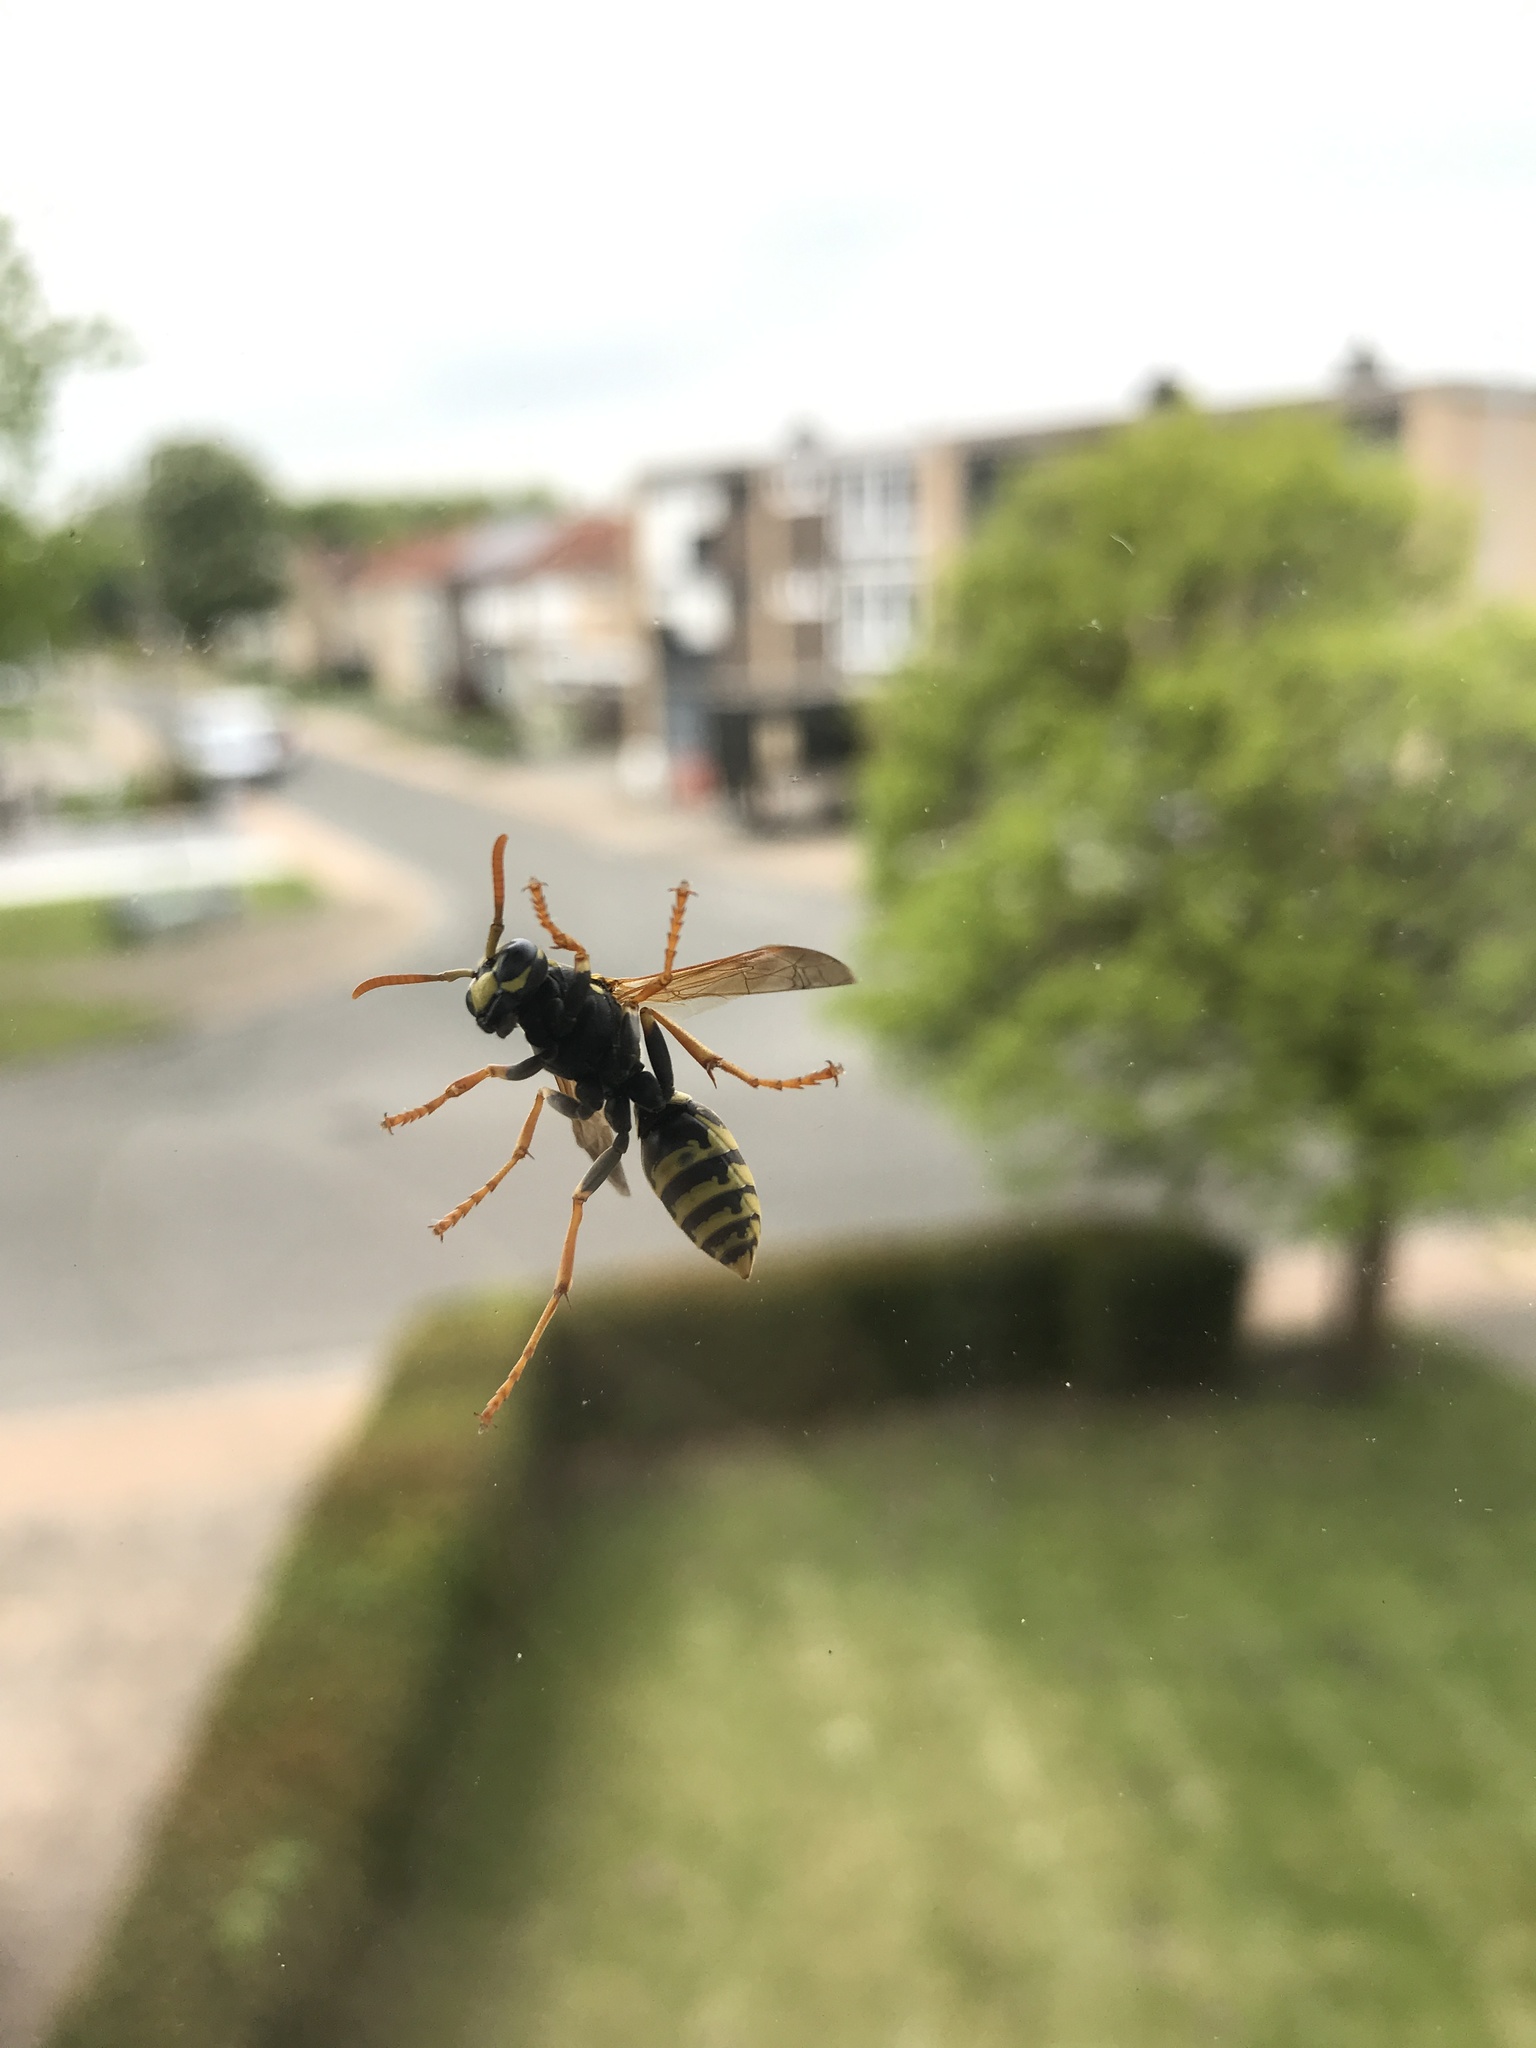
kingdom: Animalia
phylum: Arthropoda
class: Insecta
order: Hymenoptera
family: Eumenidae
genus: Polistes
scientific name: Polistes dominula
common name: Paper wasp
